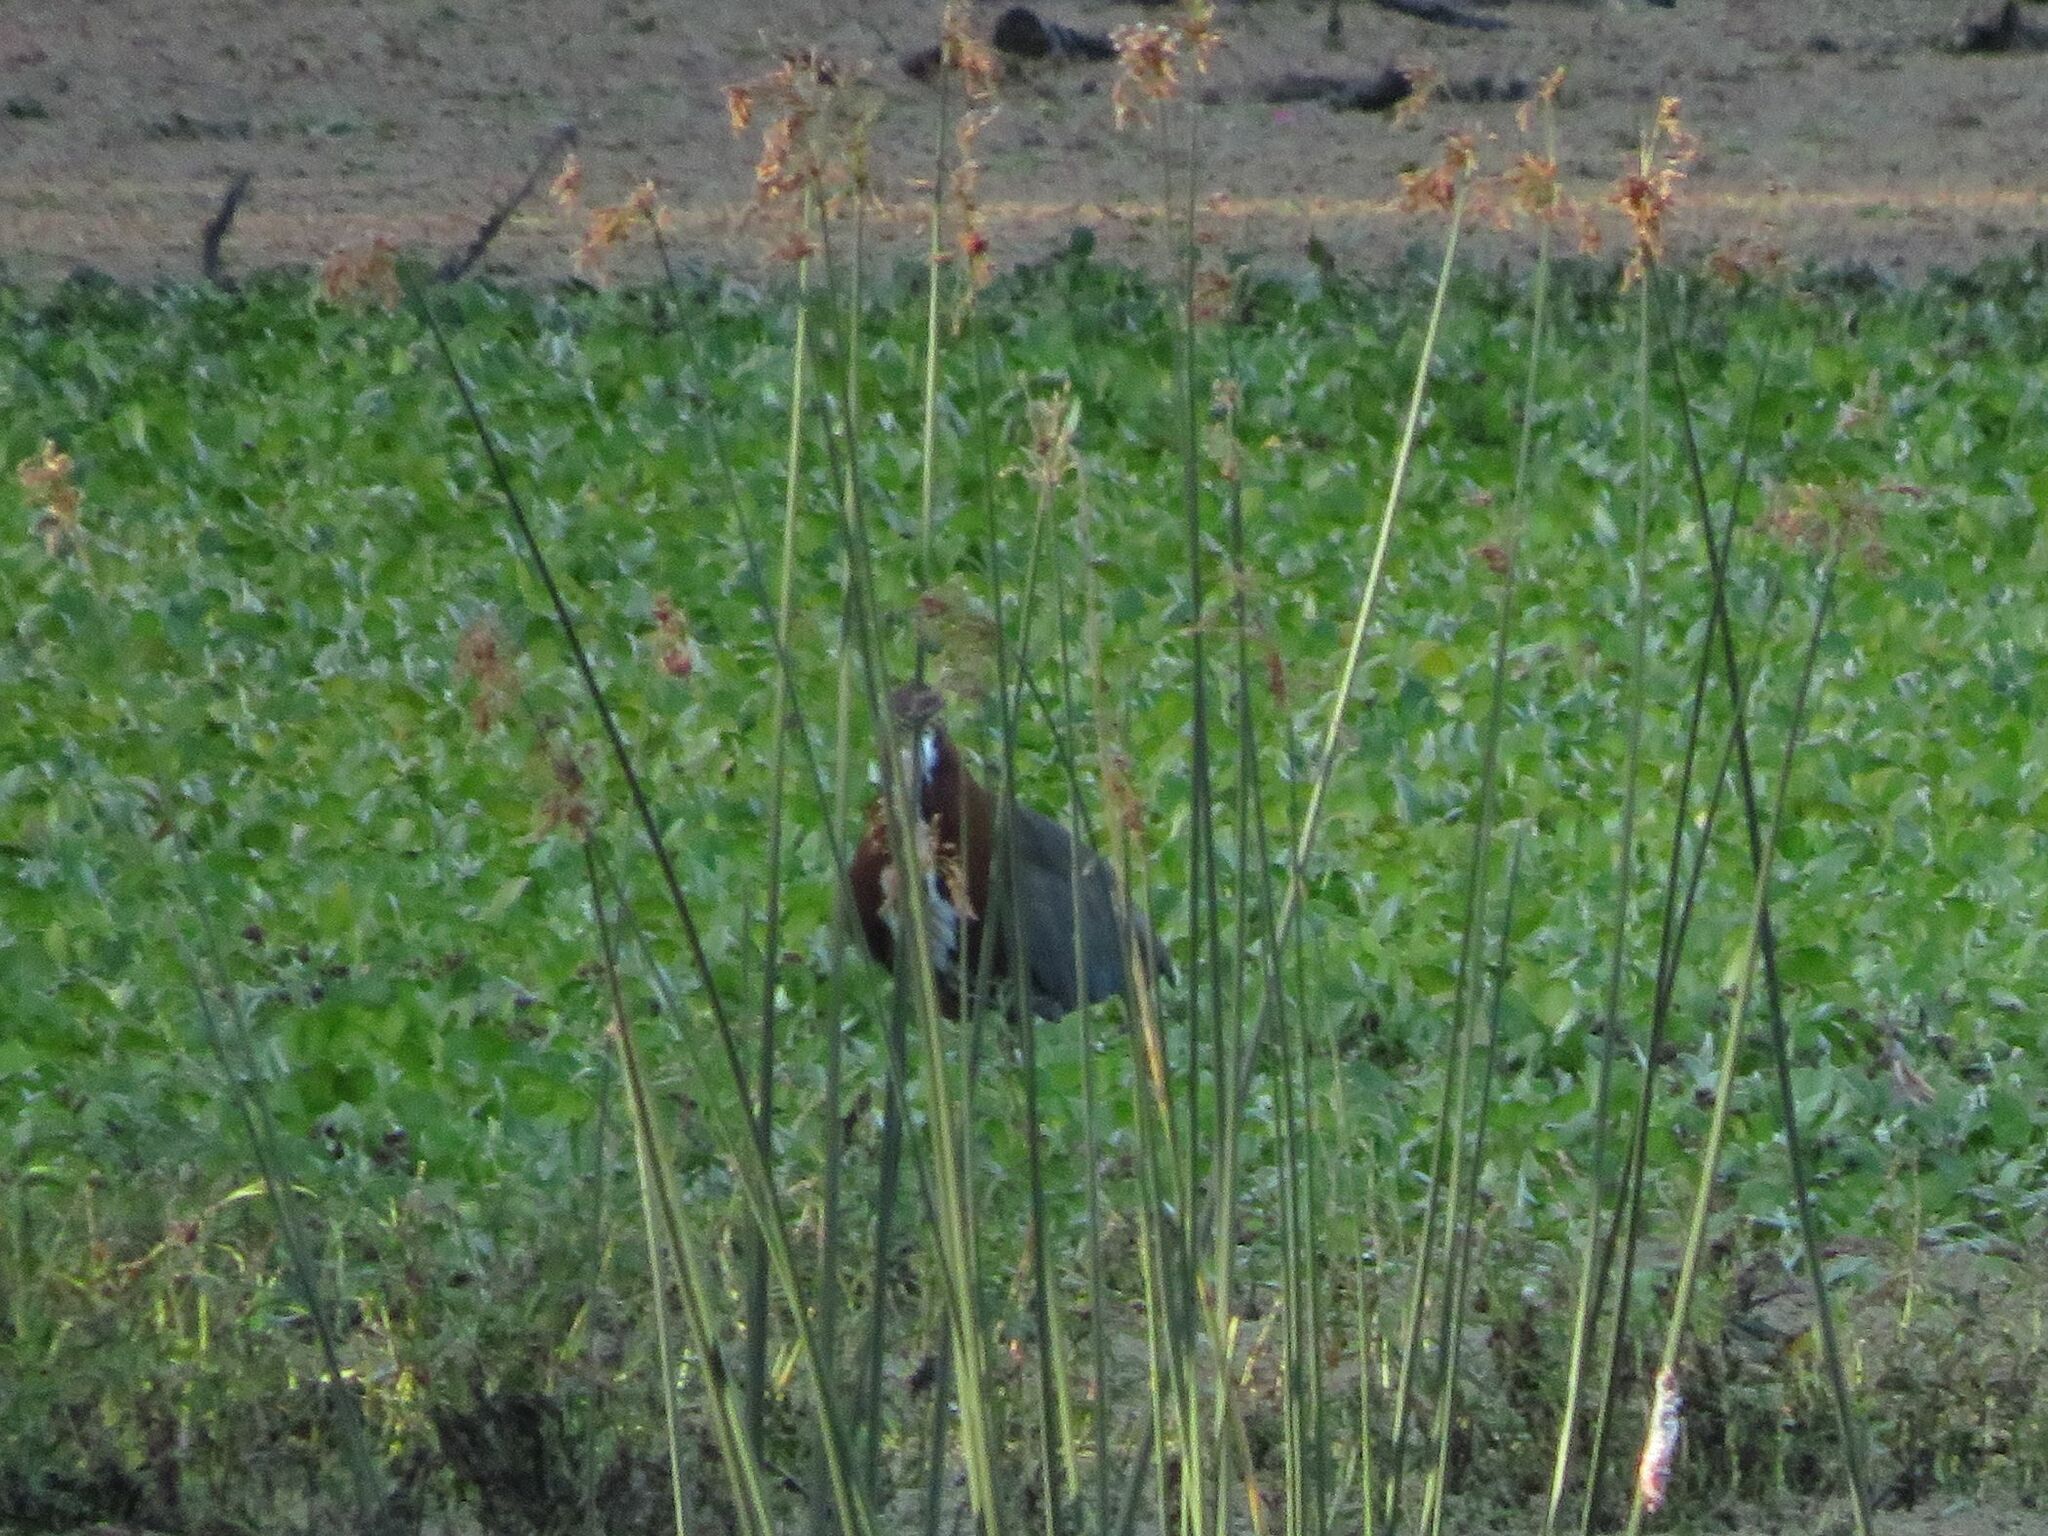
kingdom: Animalia
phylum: Chordata
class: Aves
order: Pelecaniformes
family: Ardeidae
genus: Tigrisoma
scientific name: Tigrisoma lineatum
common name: Rufescent tiger-heron
